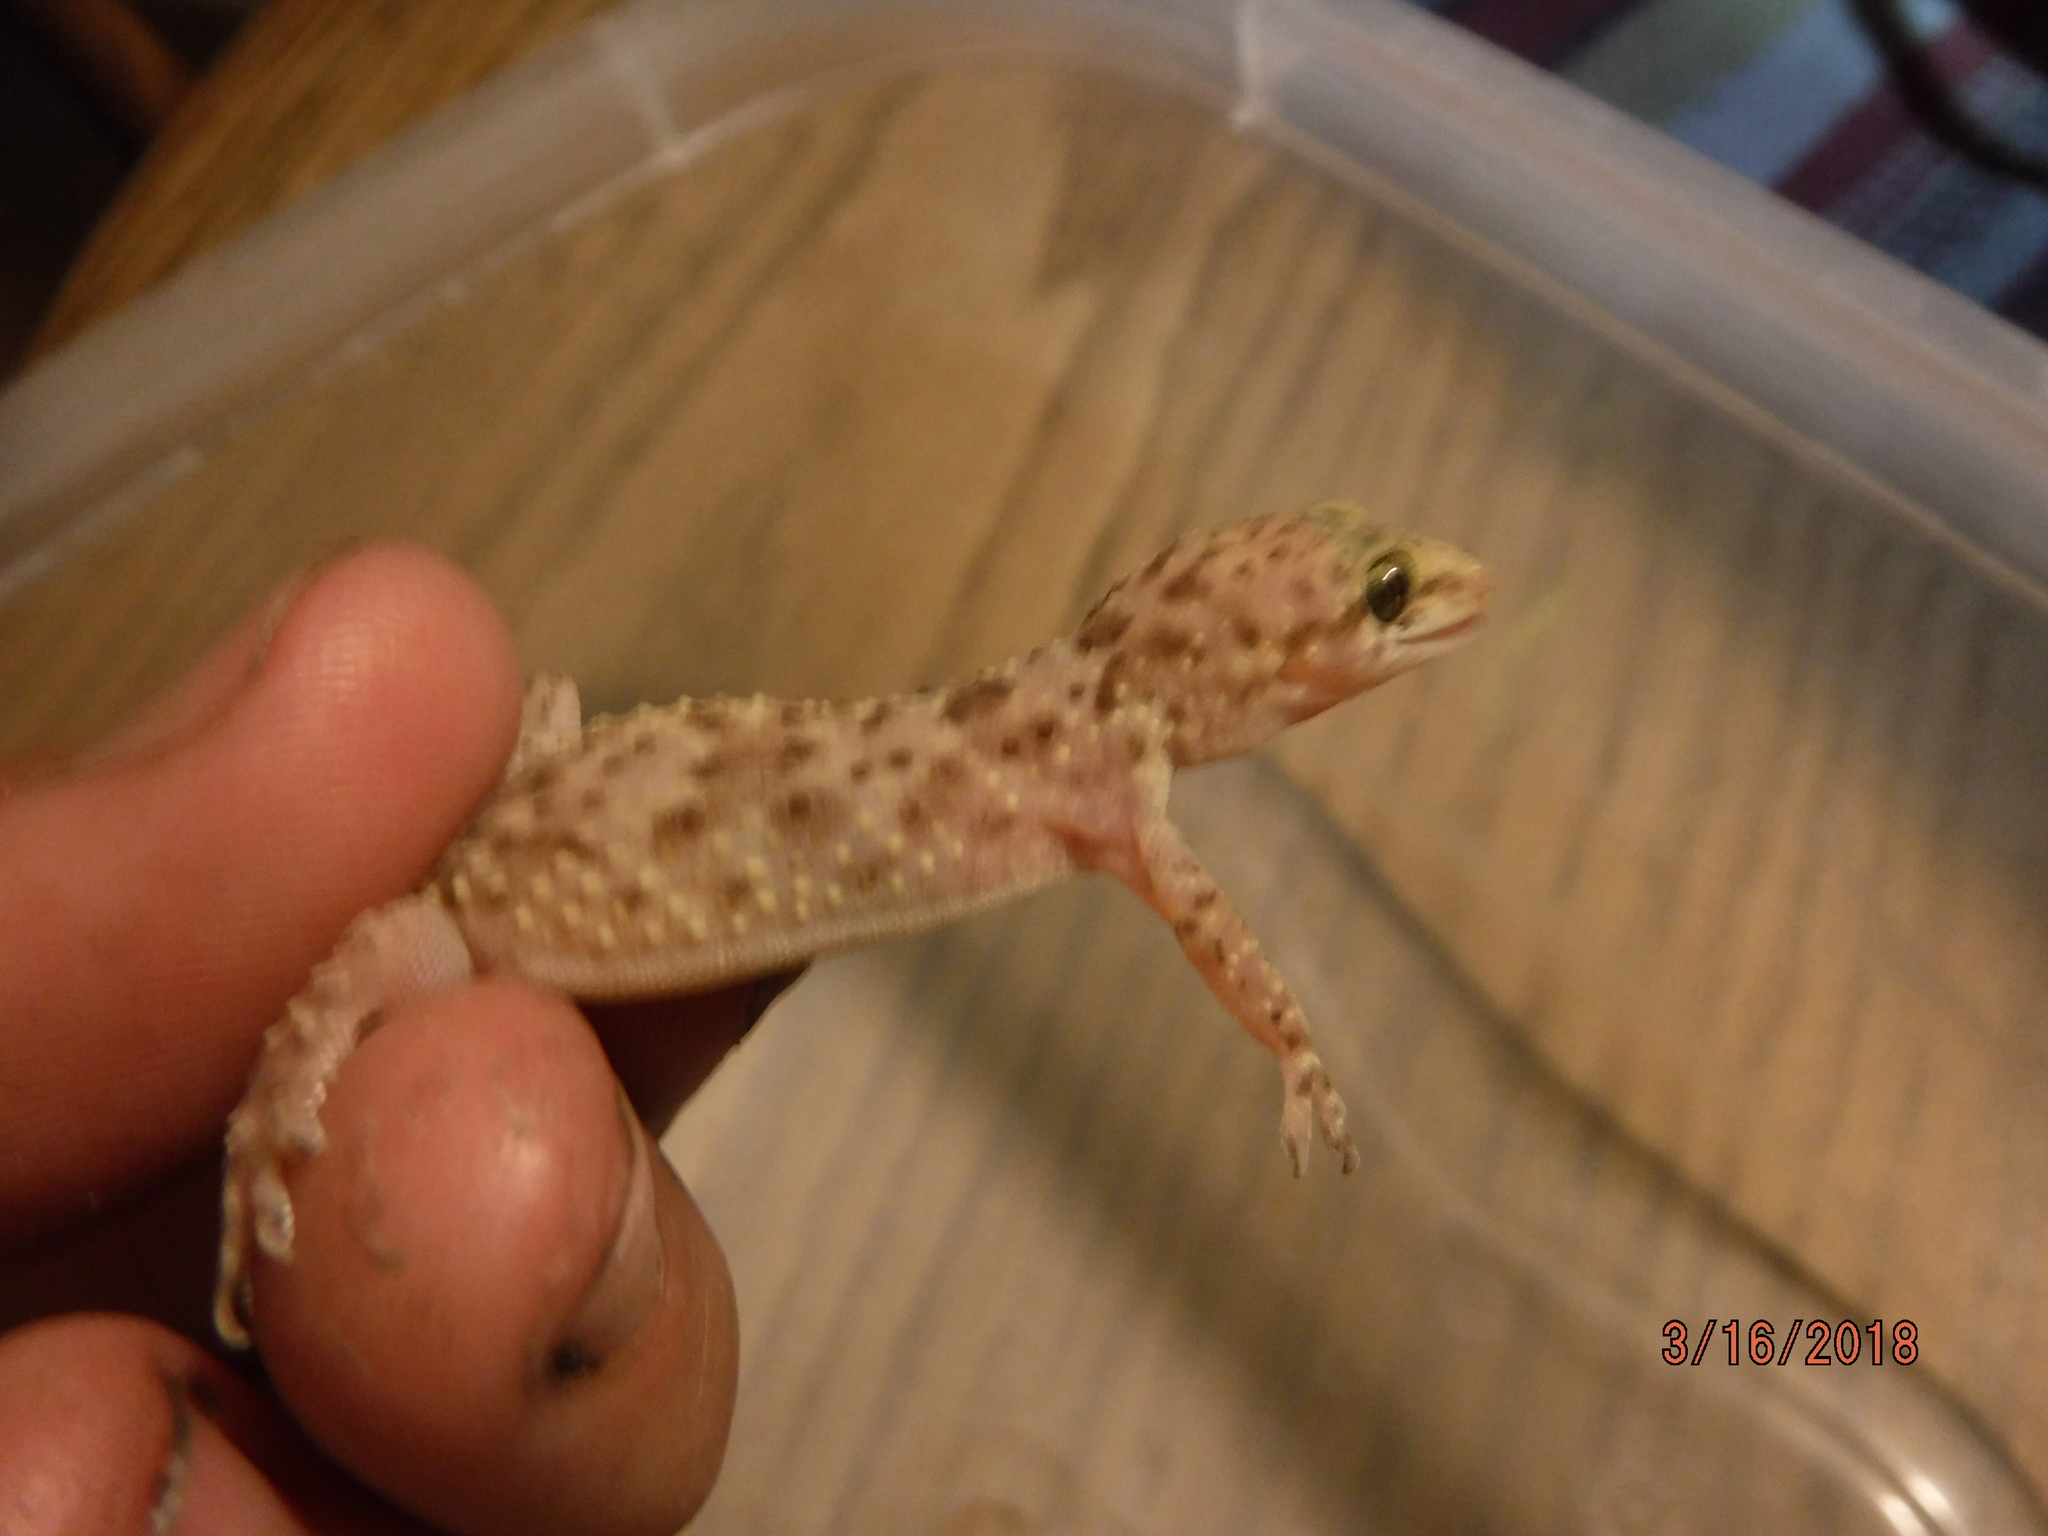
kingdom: Animalia
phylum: Chordata
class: Squamata
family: Gekkonidae
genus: Hemidactylus
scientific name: Hemidactylus turcicus
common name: Turkish gecko
